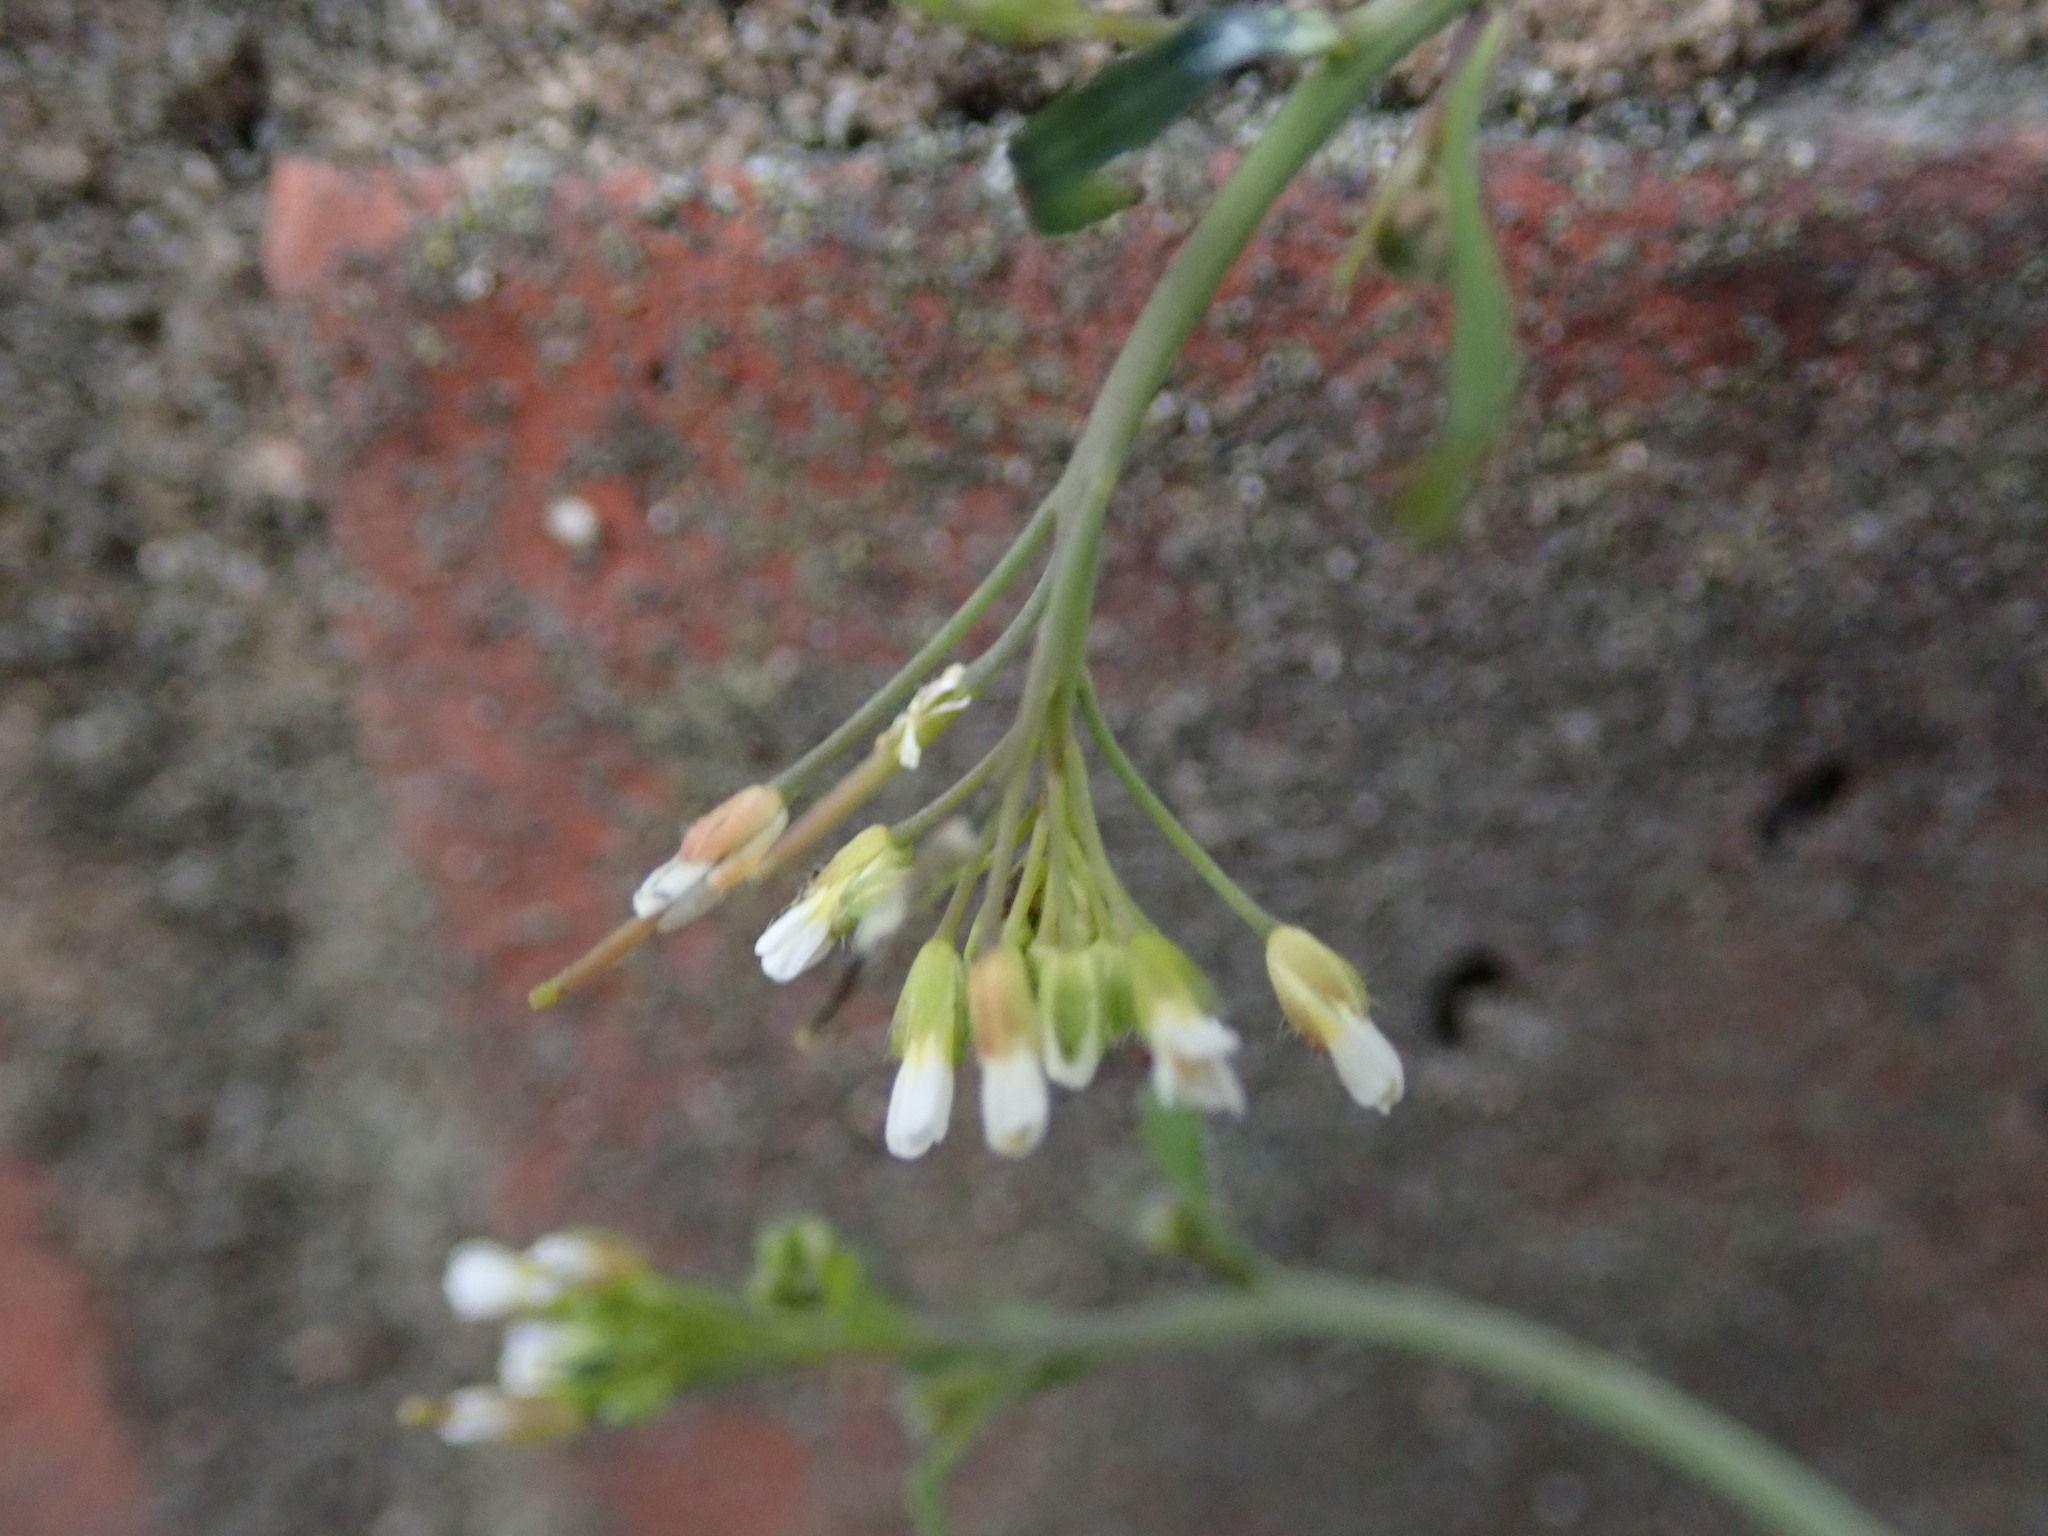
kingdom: Plantae
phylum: Tracheophyta
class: Magnoliopsida
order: Brassicales
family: Brassicaceae
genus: Arabidopsis
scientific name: Arabidopsis thaliana
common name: Thale cress
